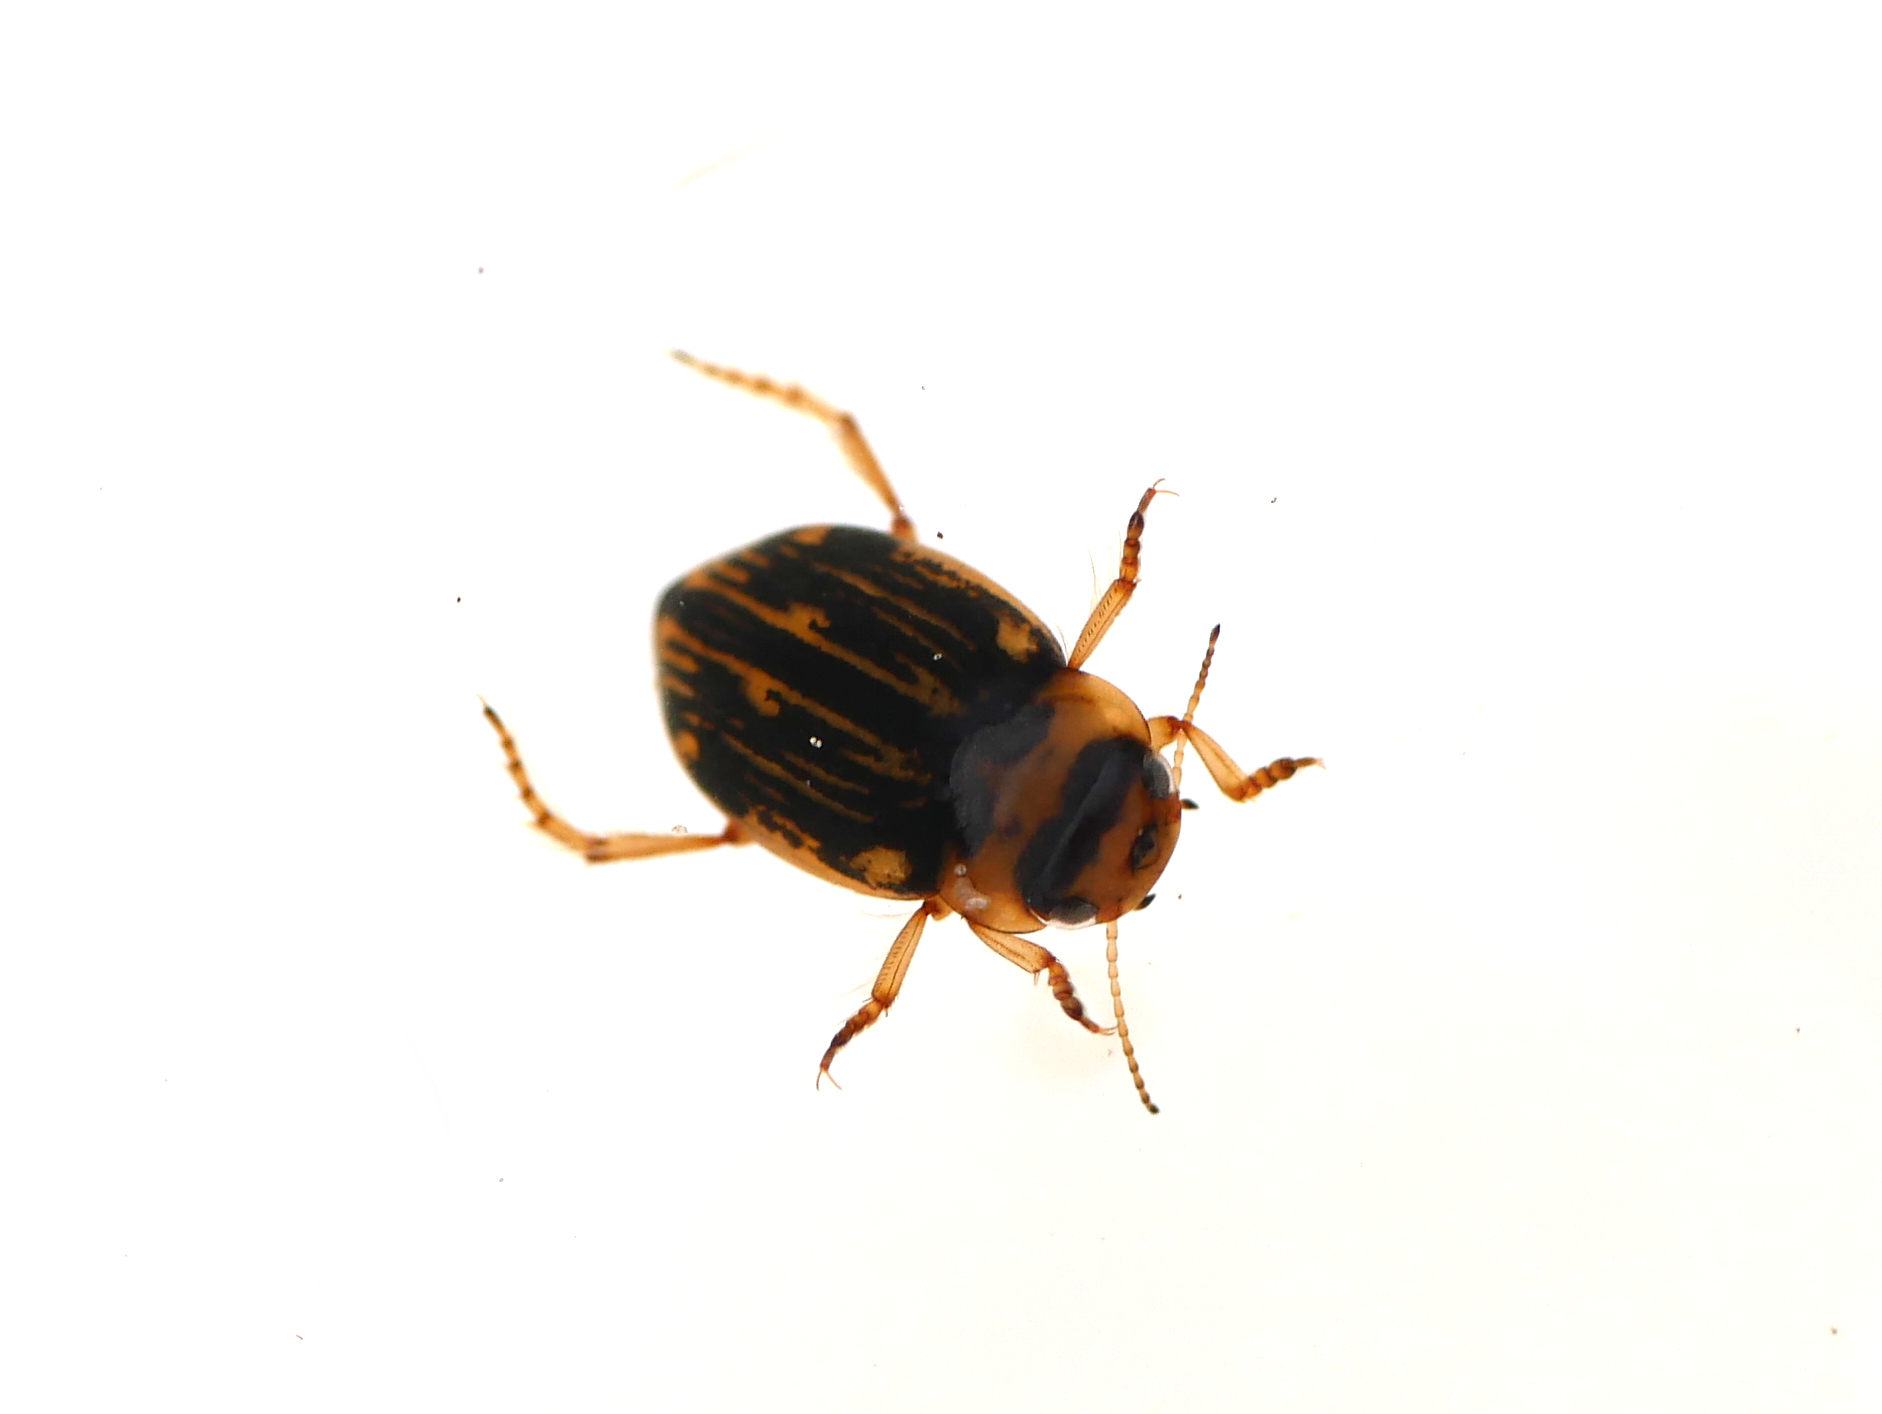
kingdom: Animalia
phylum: Arthropoda
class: Insecta
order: Coleoptera
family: Dytiscidae
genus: Nebrioporus
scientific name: Nebrioporus depressus
